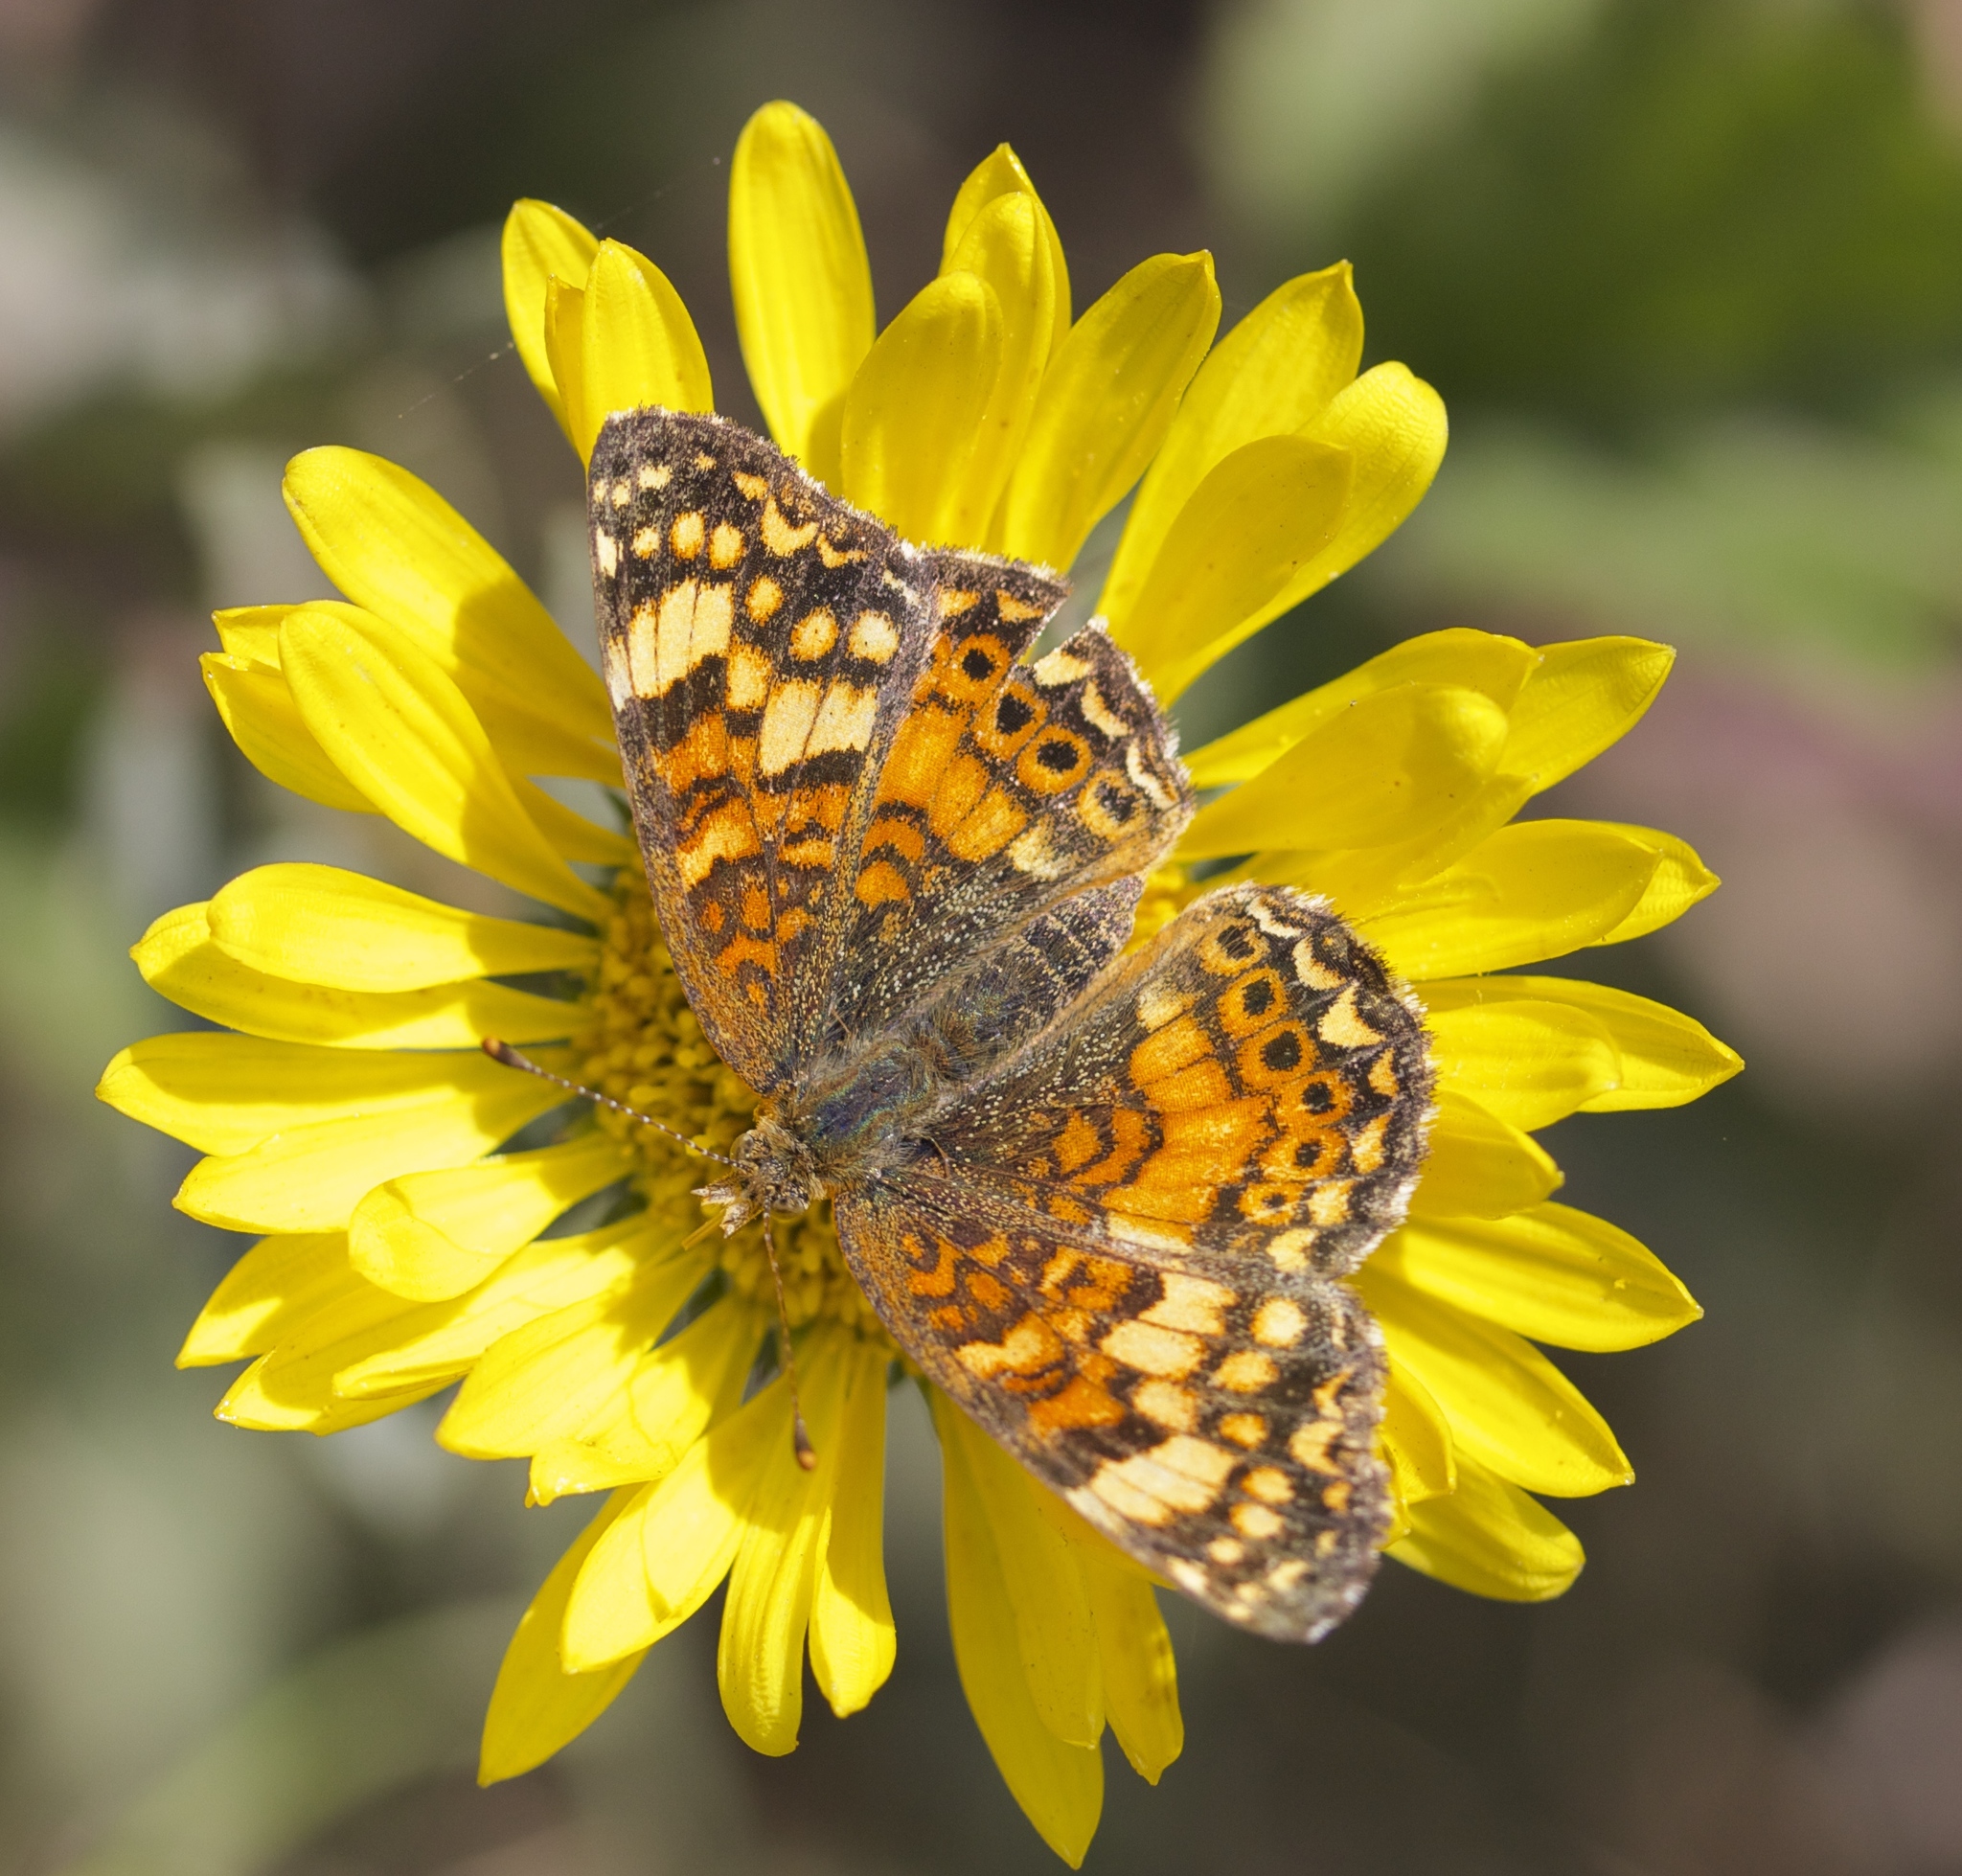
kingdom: Animalia
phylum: Arthropoda
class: Insecta
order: Lepidoptera
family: Nymphalidae
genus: Eresia
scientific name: Eresia aveyrona
